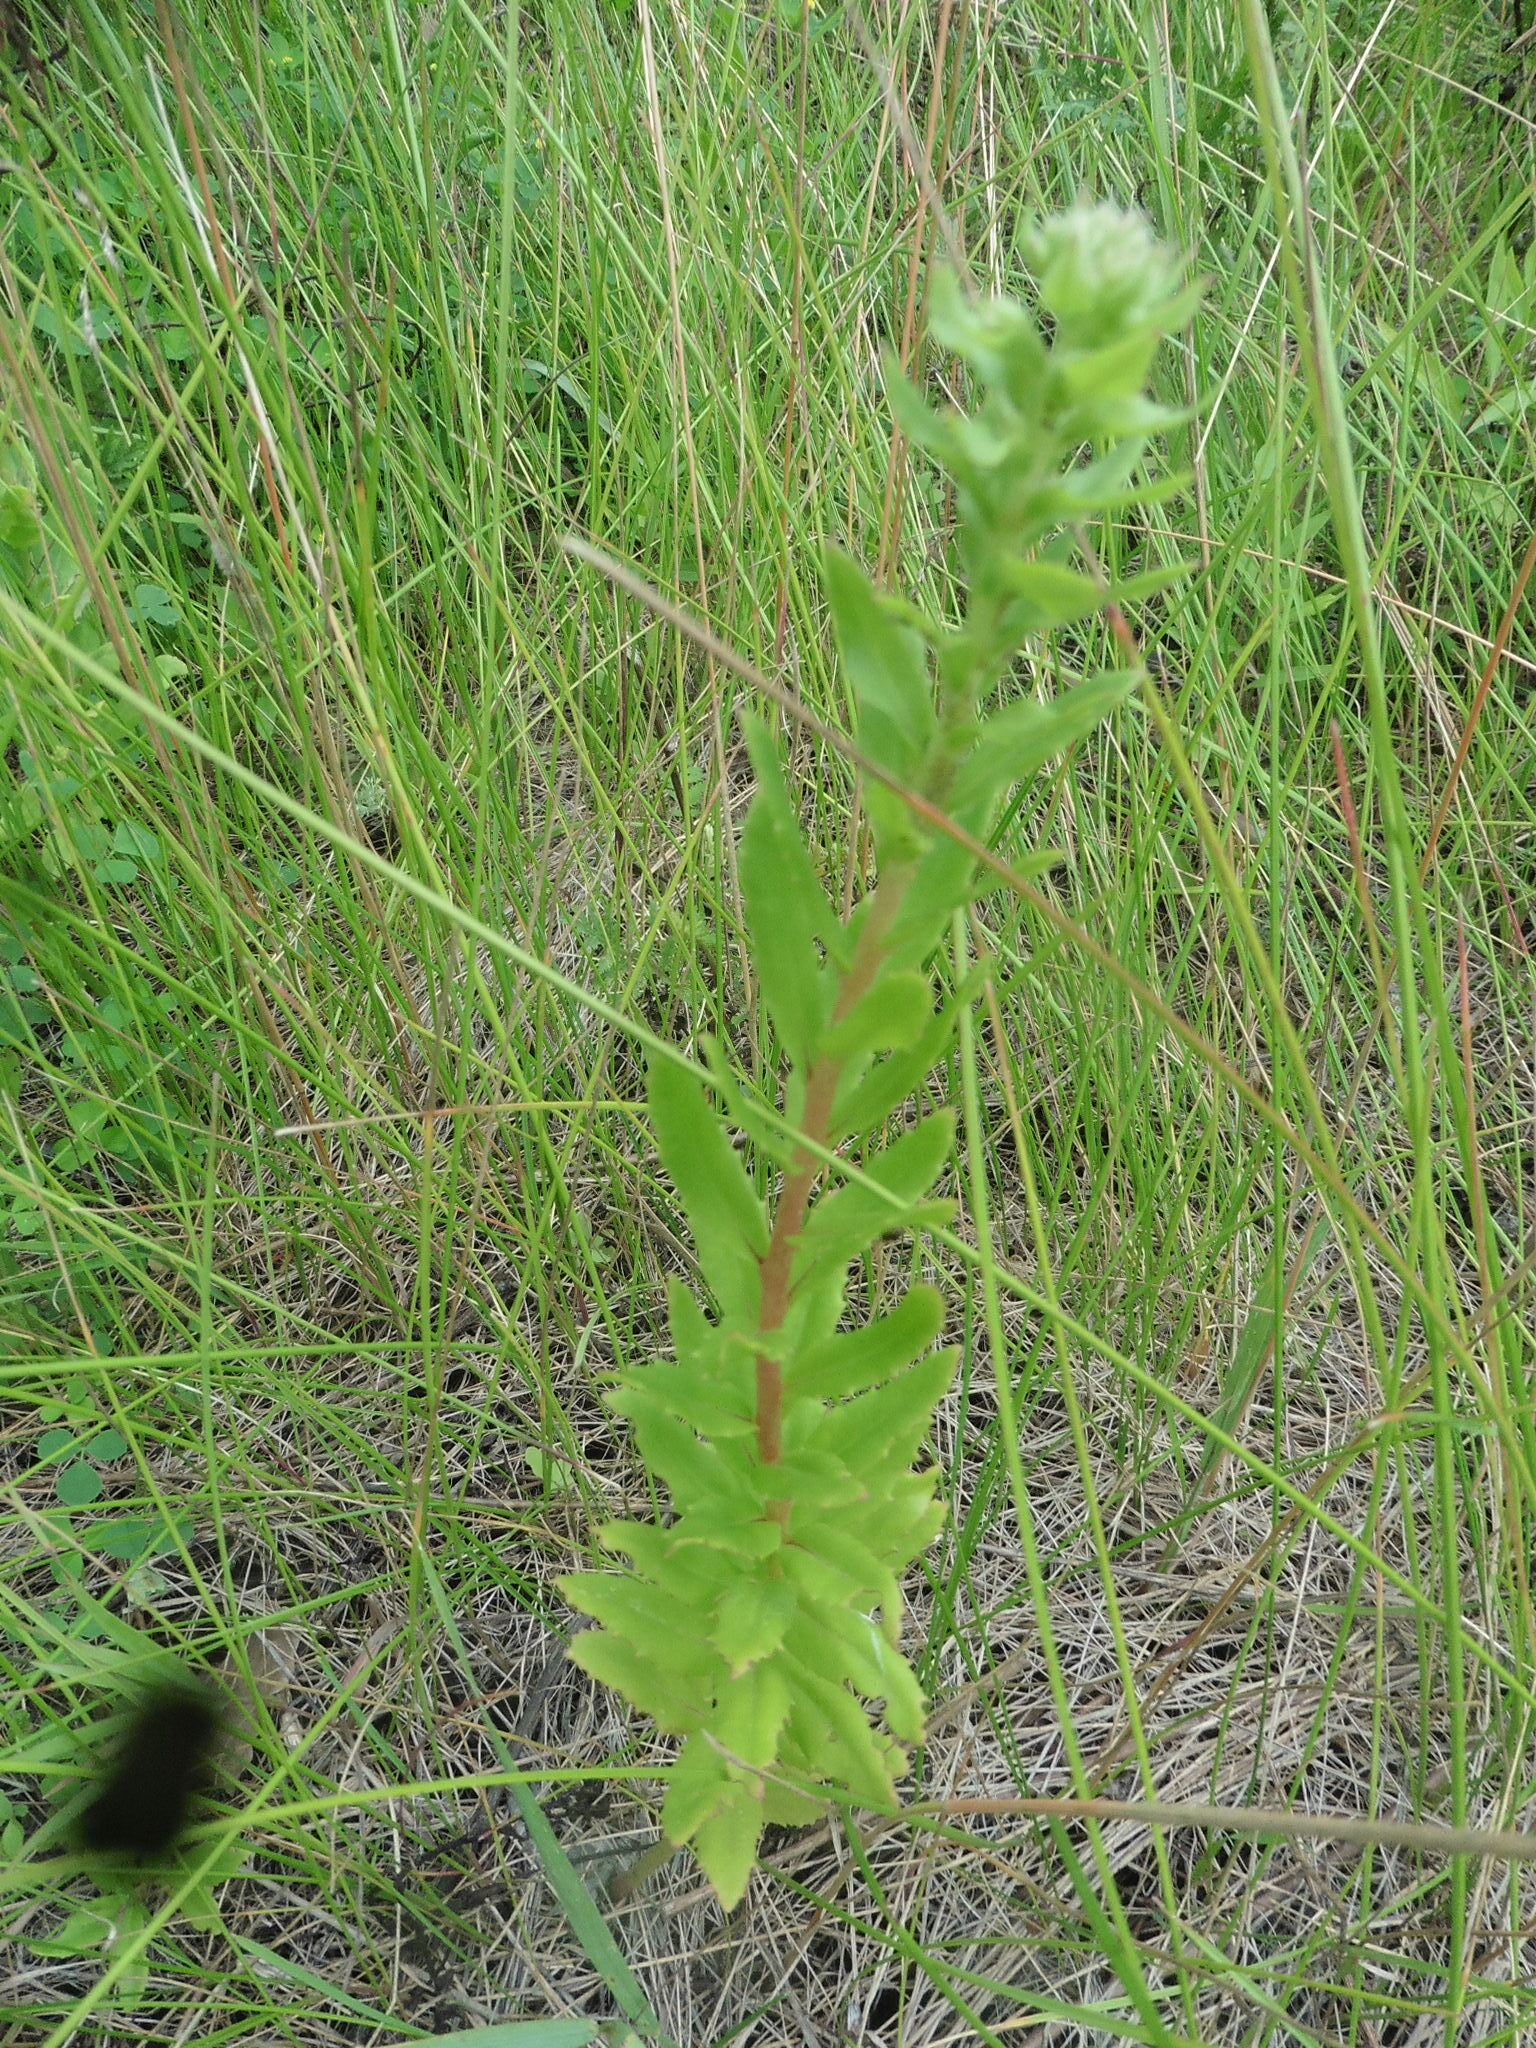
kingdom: Plantae
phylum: Tracheophyta
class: Magnoliopsida
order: Saxifragales
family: Crassulaceae
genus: Hylotelephium
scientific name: Hylotelephium telephium
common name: Live-forever
